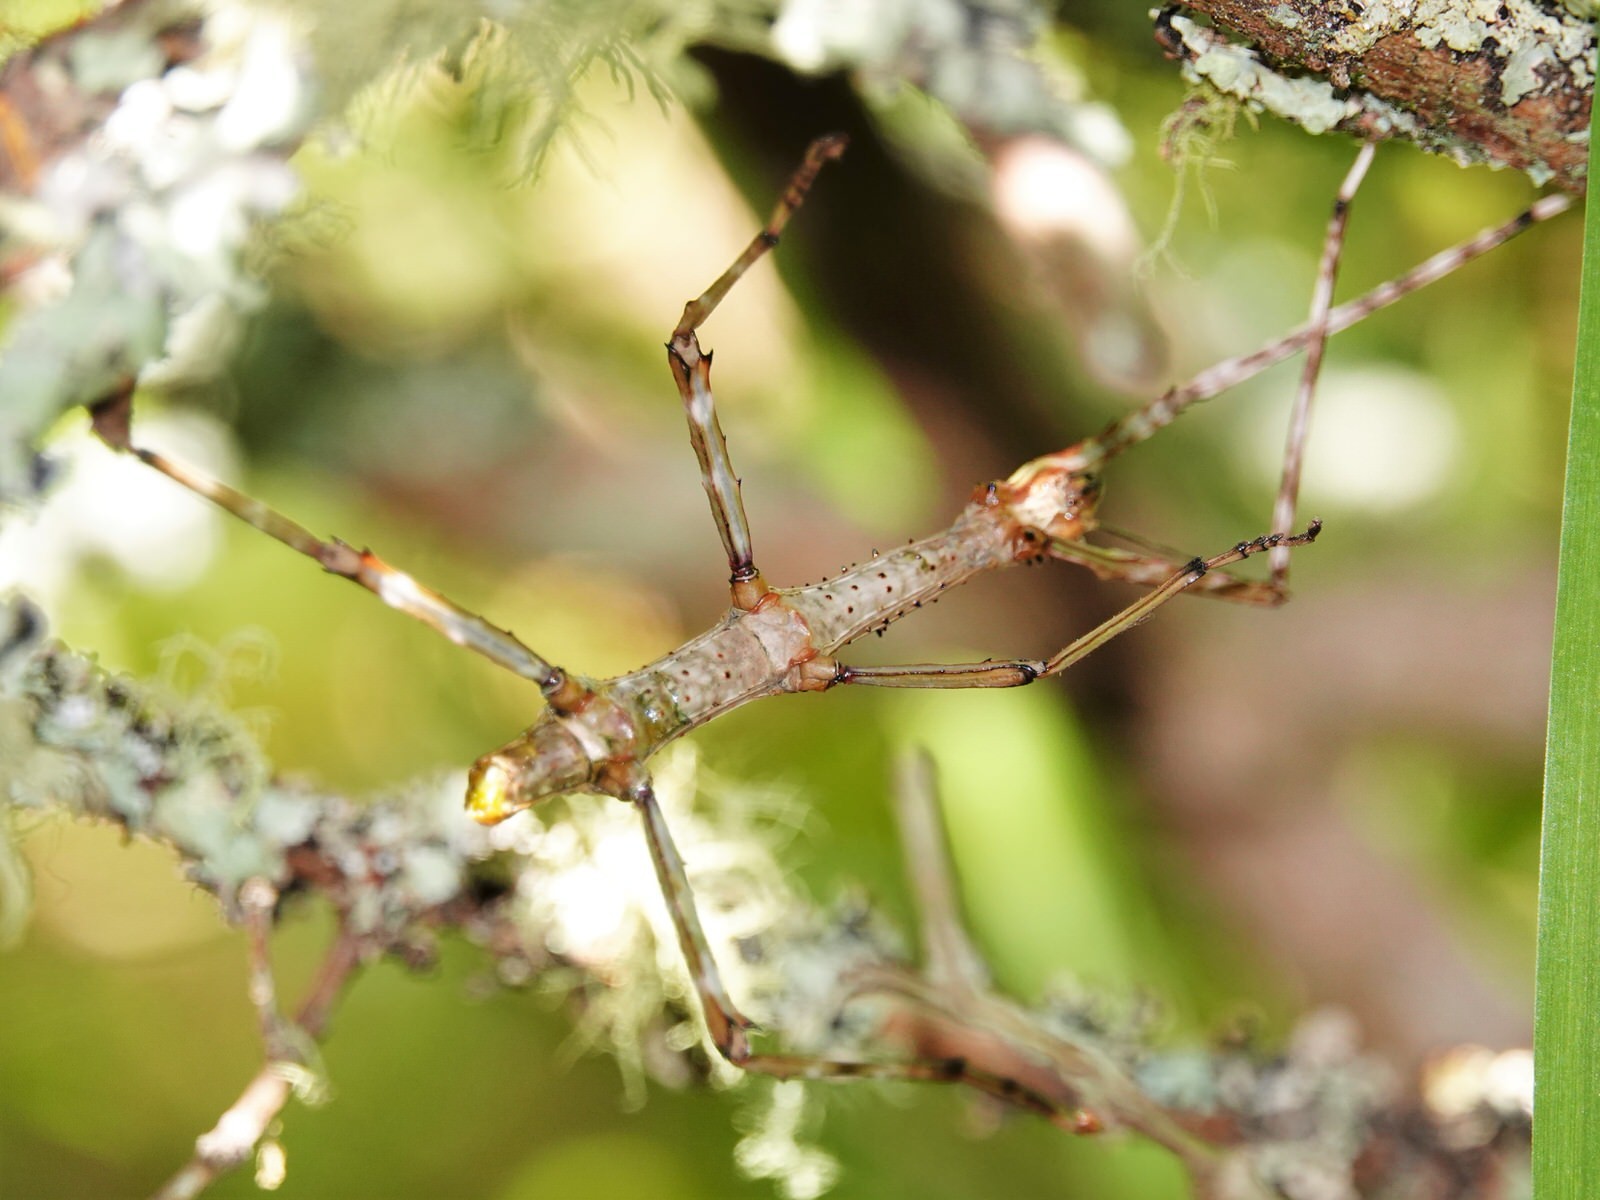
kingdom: Animalia
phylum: Arthropoda
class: Insecta
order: Phasmida
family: Phasmatidae
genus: Acanthoxyla
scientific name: Acanthoxyla prasina
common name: Black-spined stick insect
